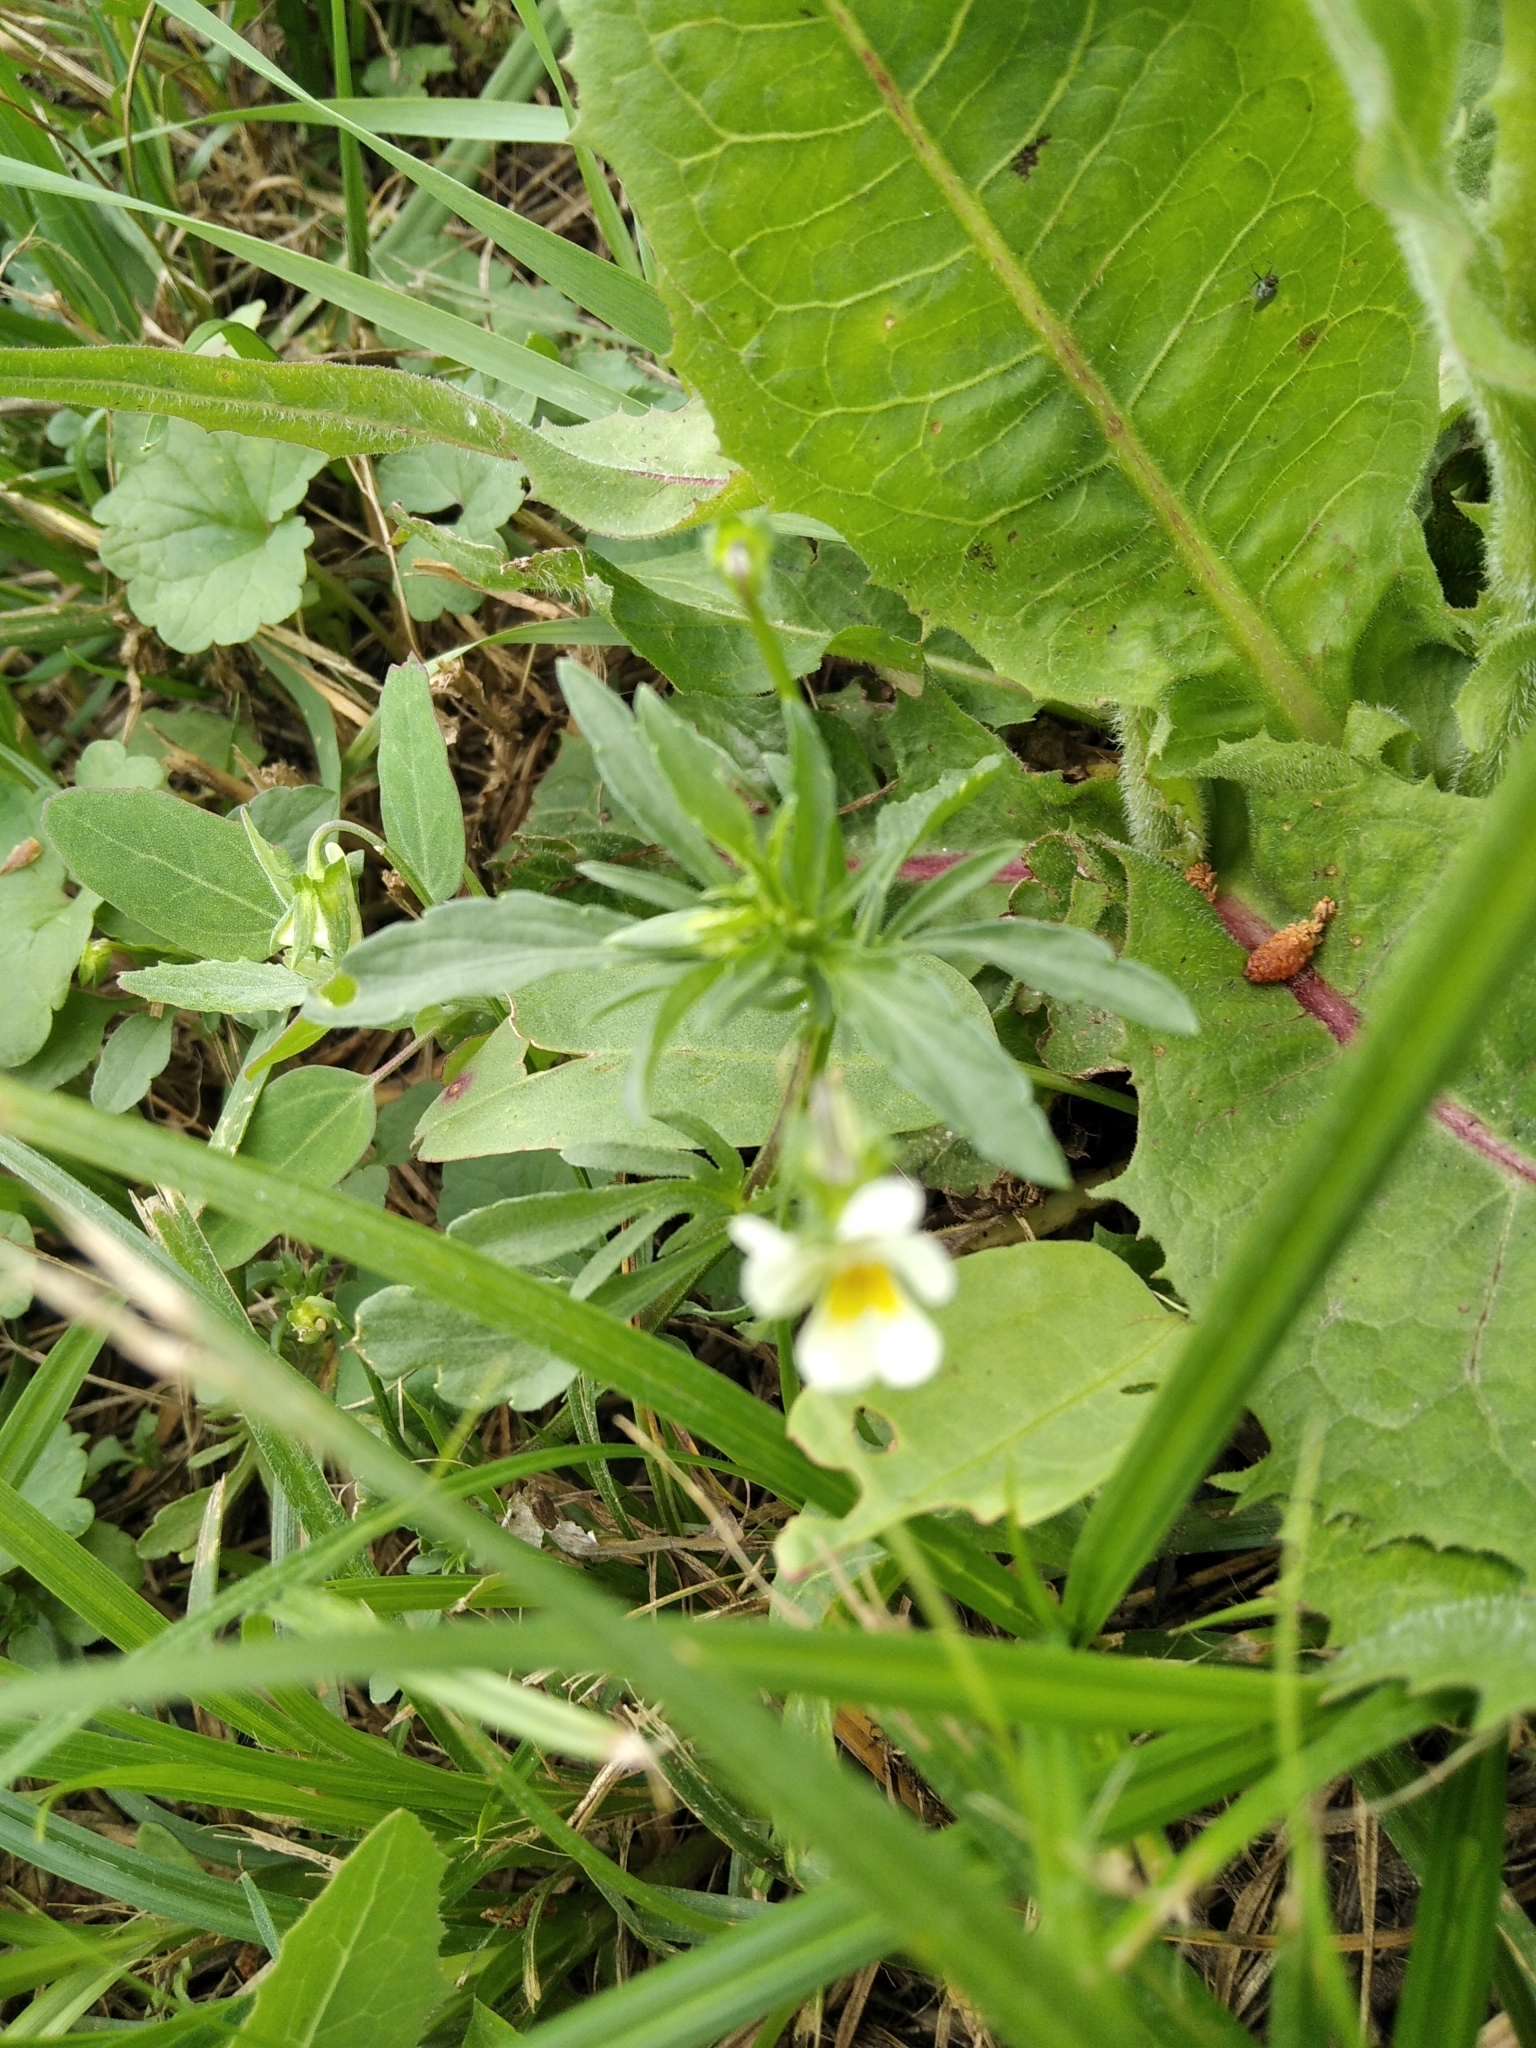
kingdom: Plantae
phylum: Tracheophyta
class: Magnoliopsida
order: Malpighiales
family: Violaceae
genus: Viola
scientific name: Viola arvensis
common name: Field pansy
